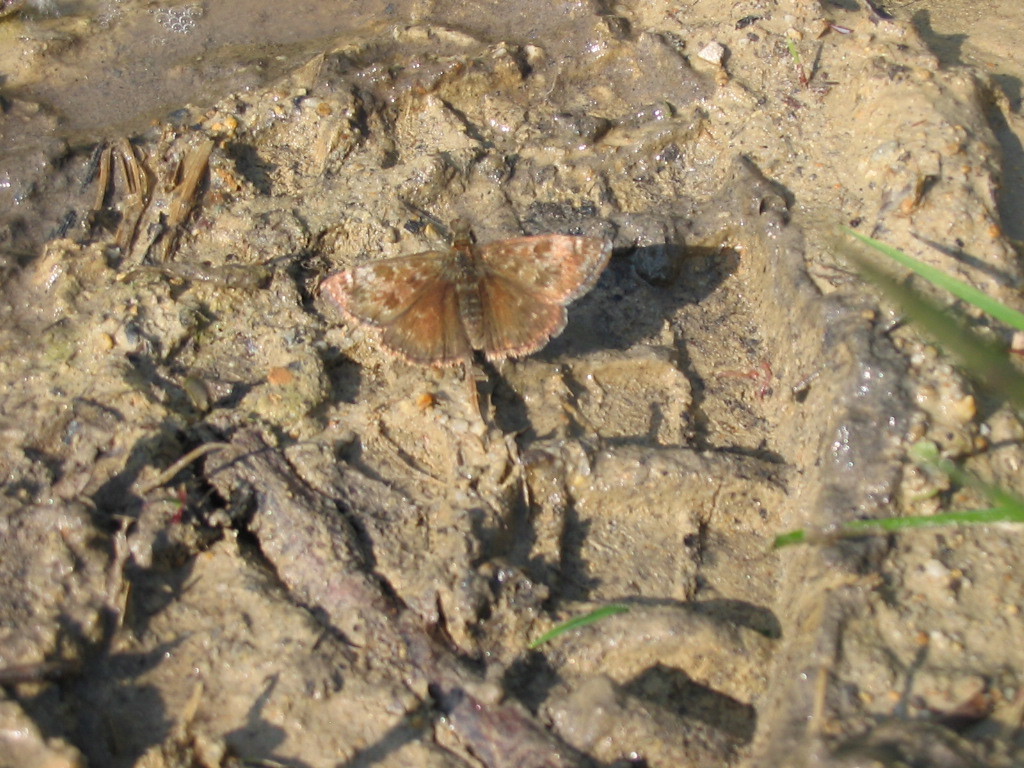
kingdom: Animalia
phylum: Arthropoda
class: Insecta
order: Lepidoptera
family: Hesperiidae
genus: Erynnis
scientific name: Erynnis tages
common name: Dingy skipper
